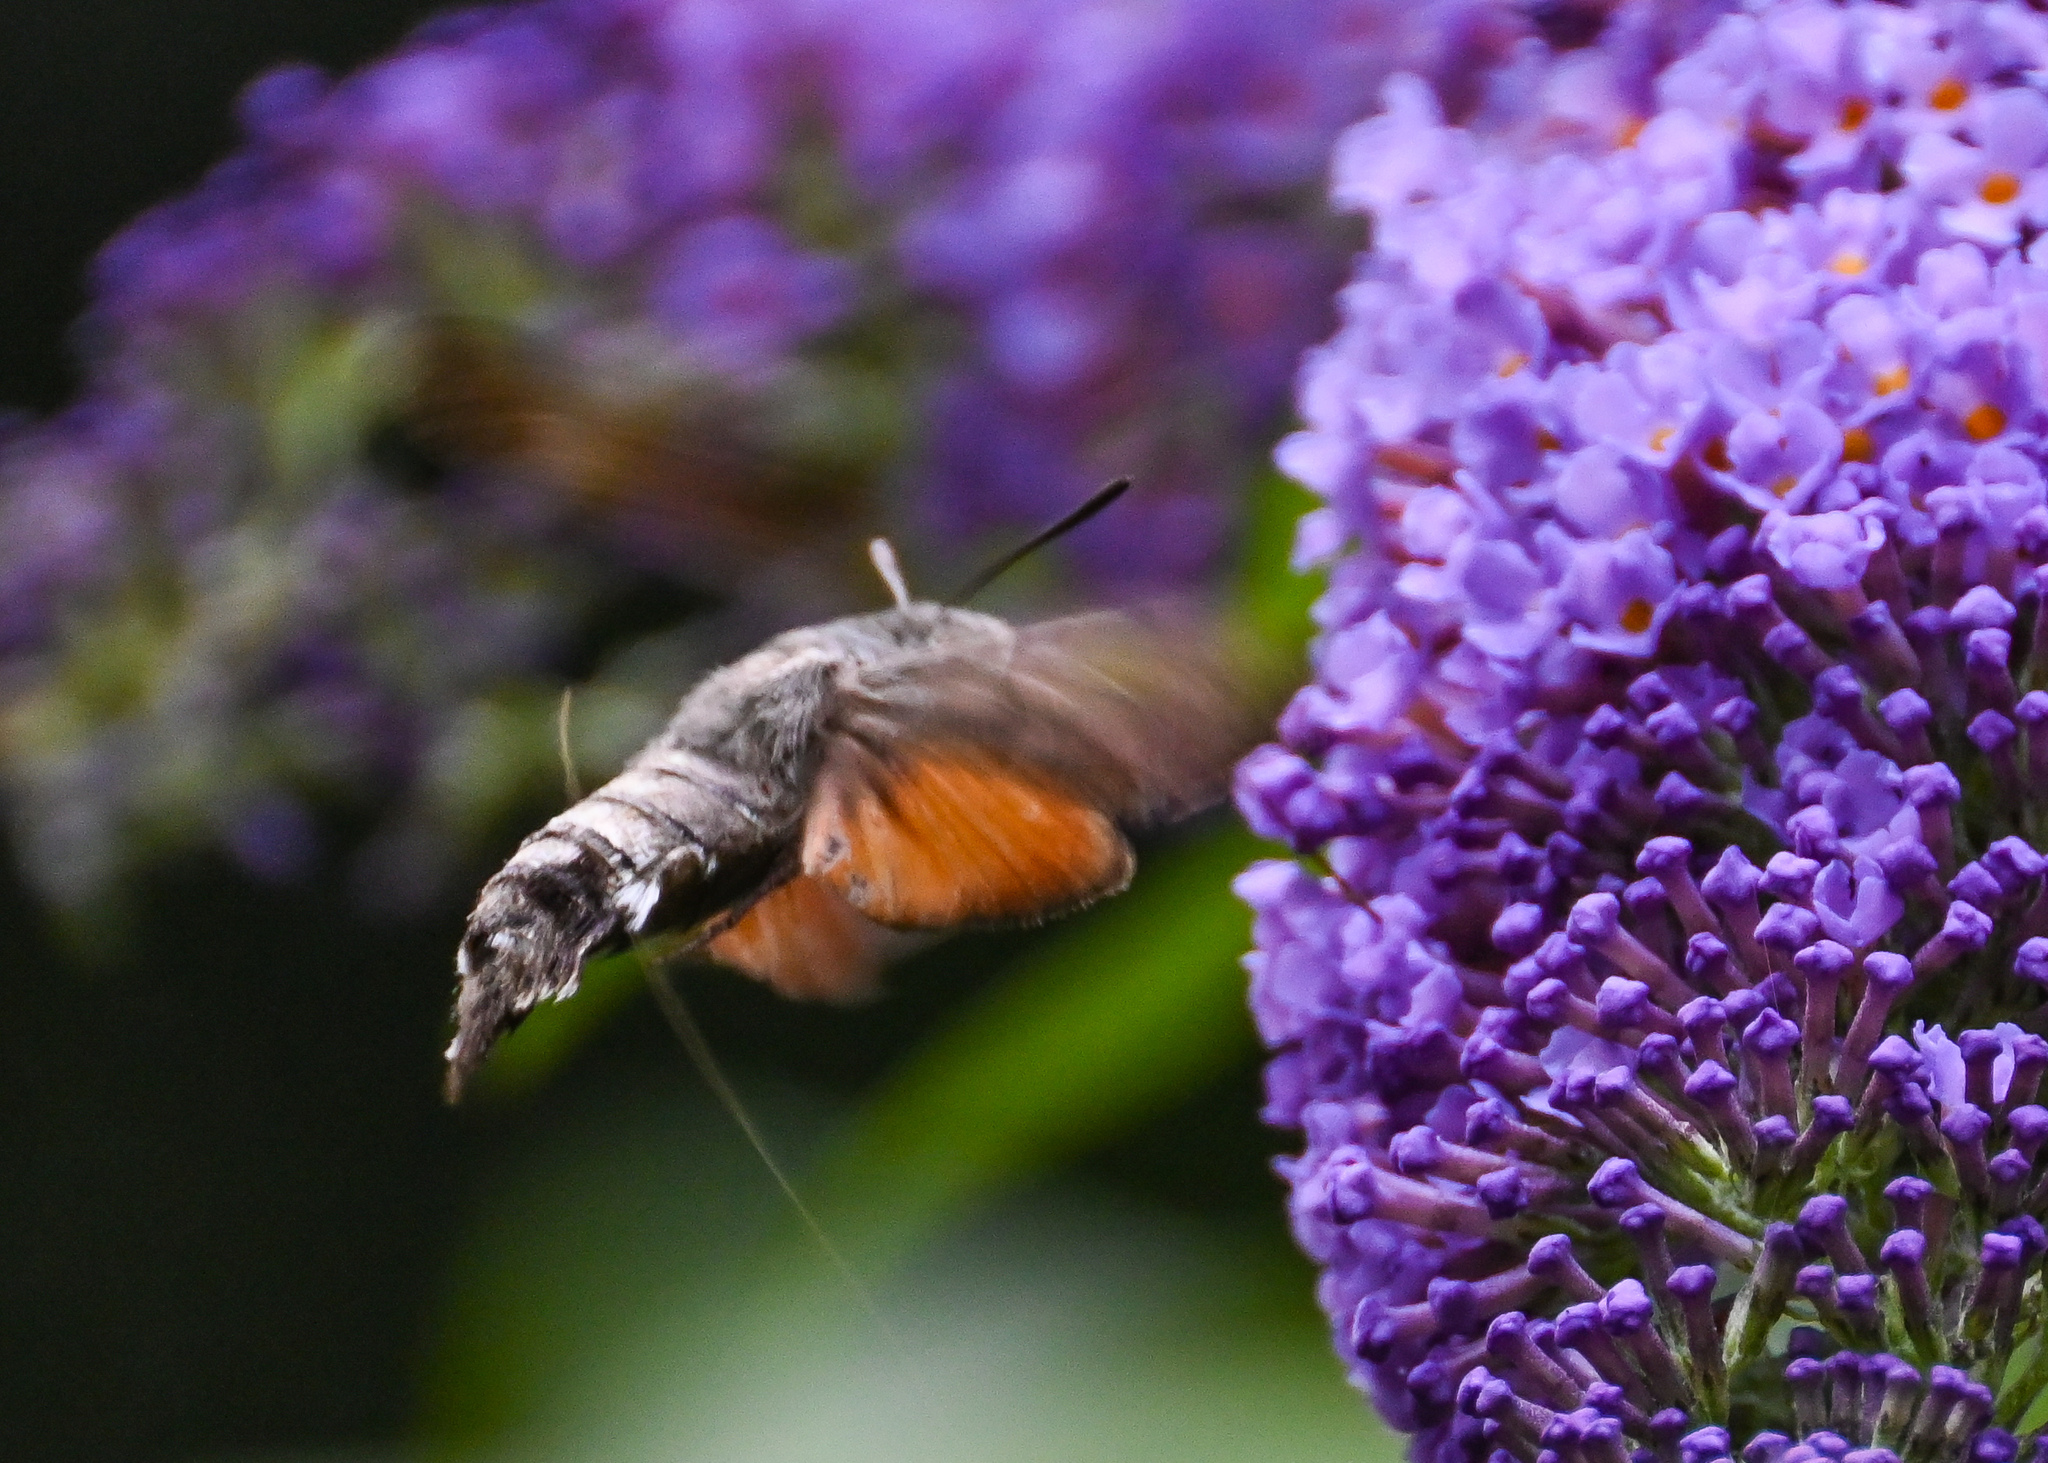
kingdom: Animalia
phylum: Arthropoda
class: Insecta
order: Lepidoptera
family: Sphingidae
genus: Macroglossum
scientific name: Macroglossum stellatarum
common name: Humming-bird hawk-moth
